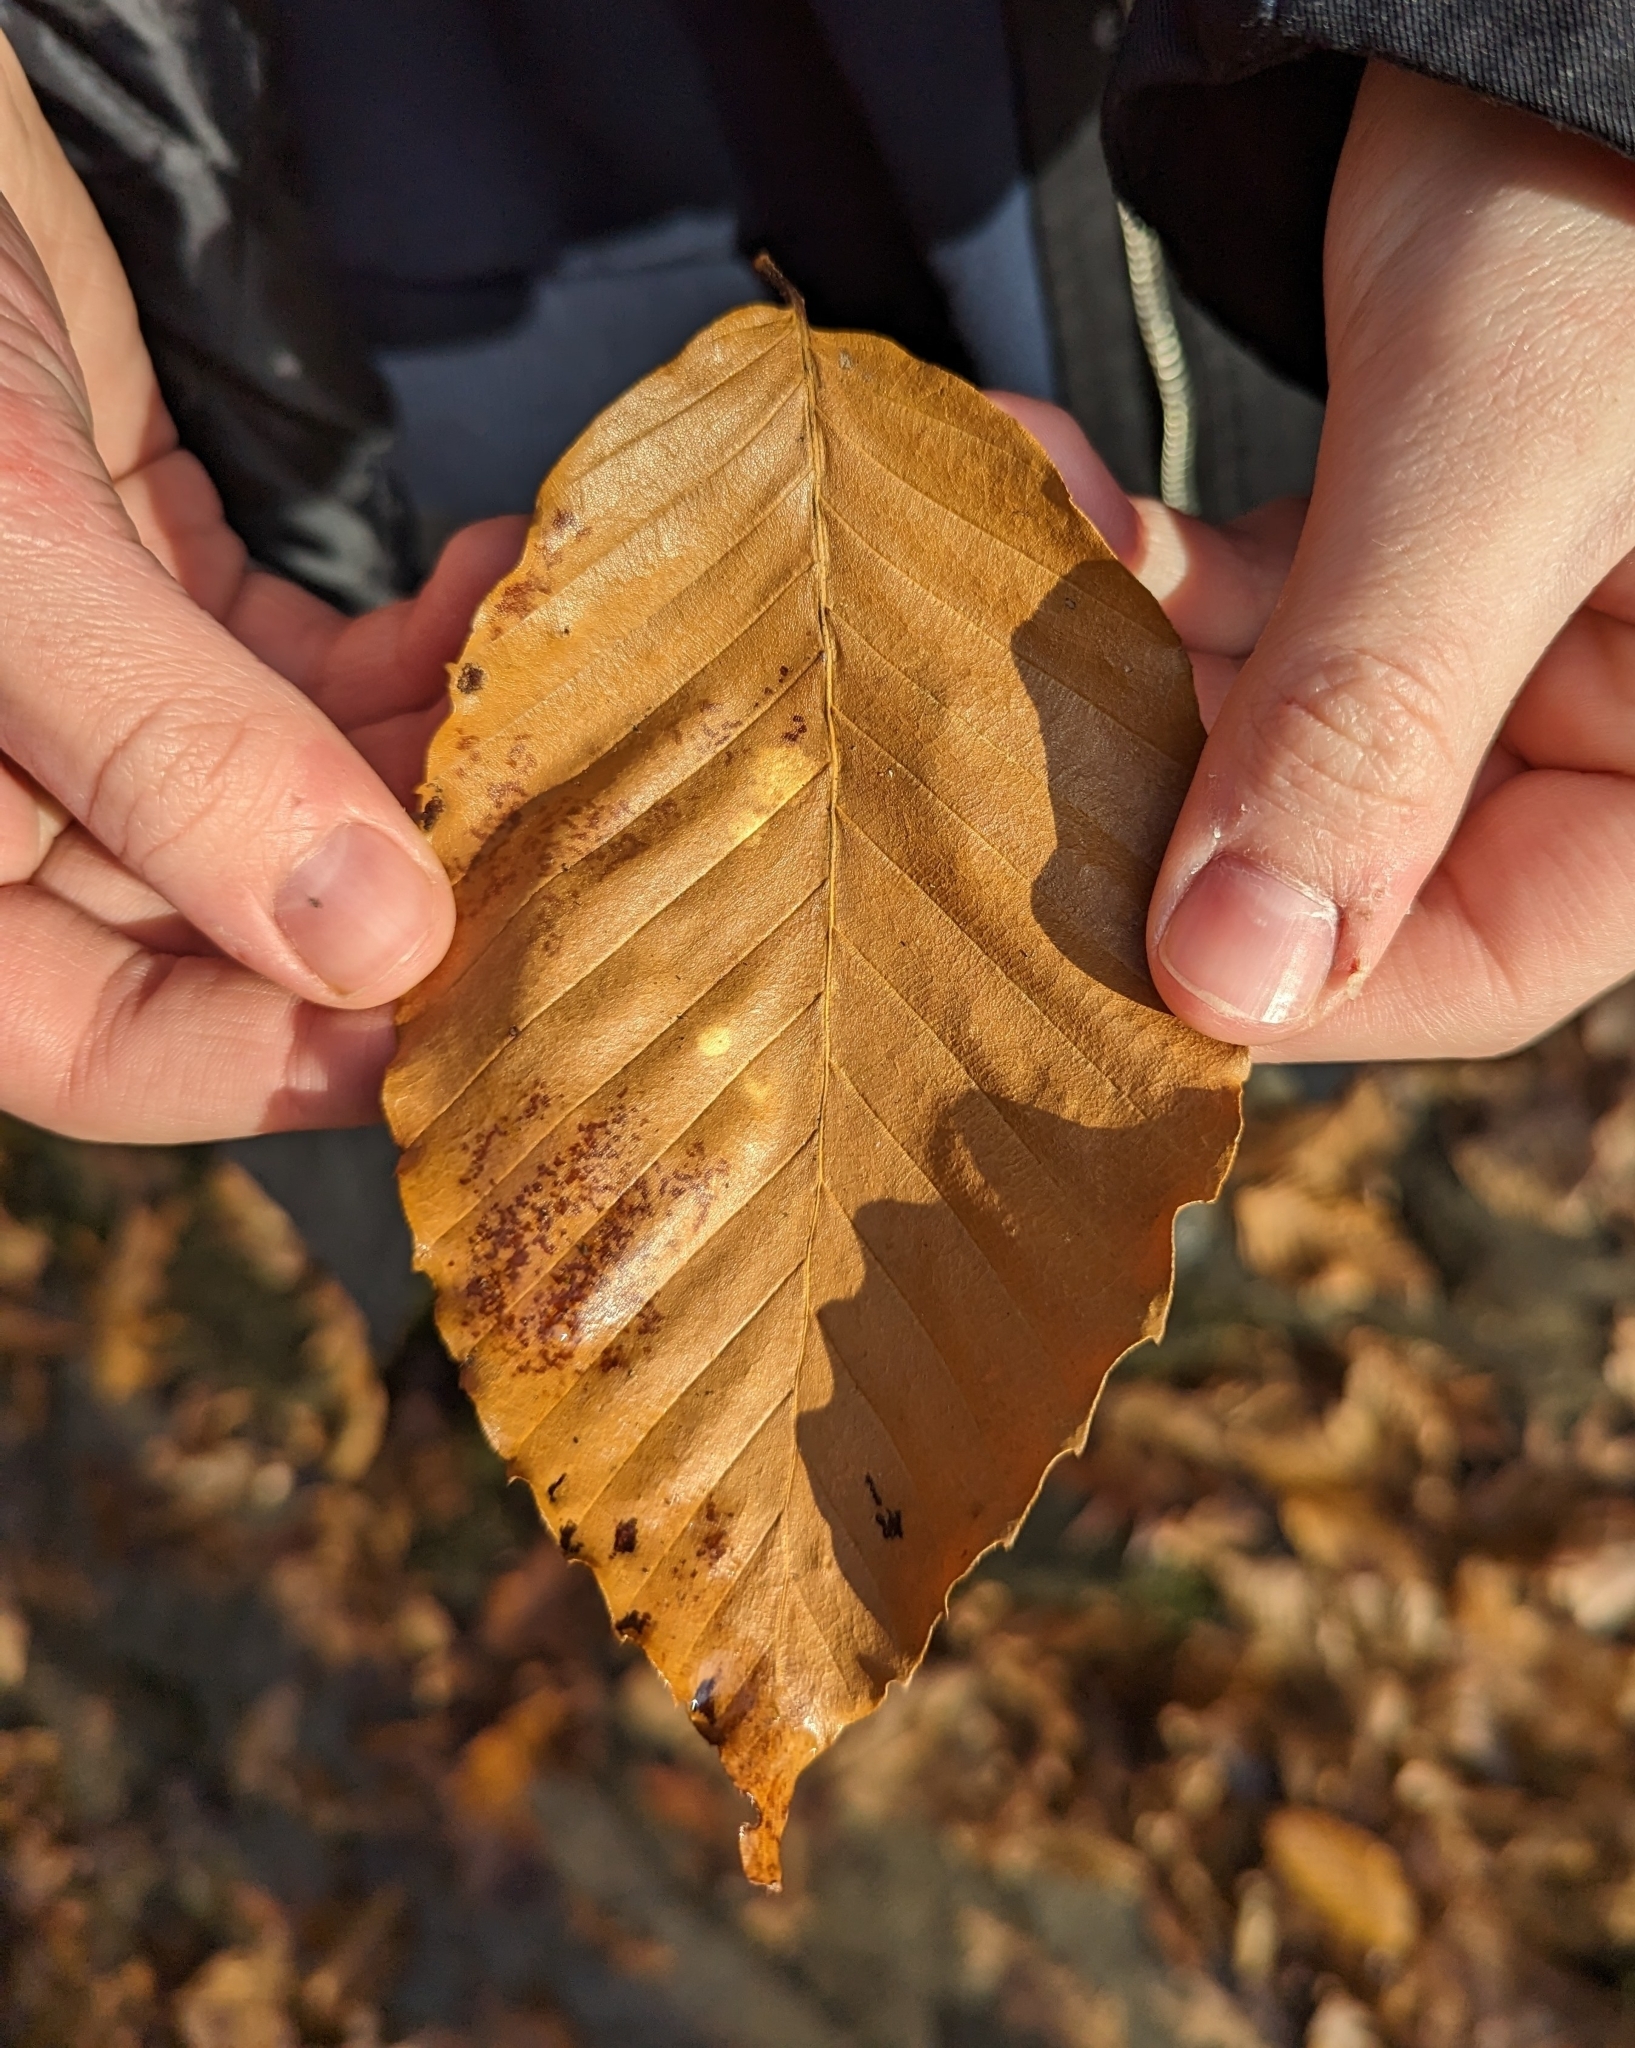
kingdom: Plantae
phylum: Tracheophyta
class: Magnoliopsida
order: Fagales
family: Fagaceae
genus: Fagus
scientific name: Fagus grandifolia
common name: American beech
